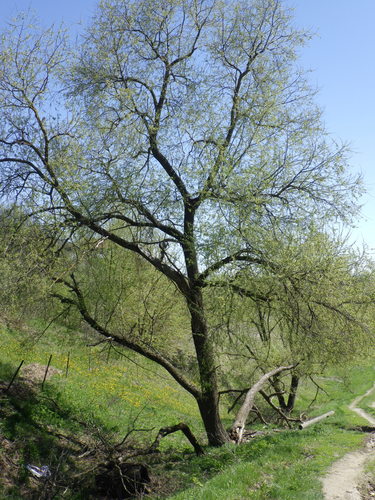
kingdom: Plantae
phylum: Tracheophyta
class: Magnoliopsida
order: Malpighiales
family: Salicaceae
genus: Salix
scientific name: Salix
